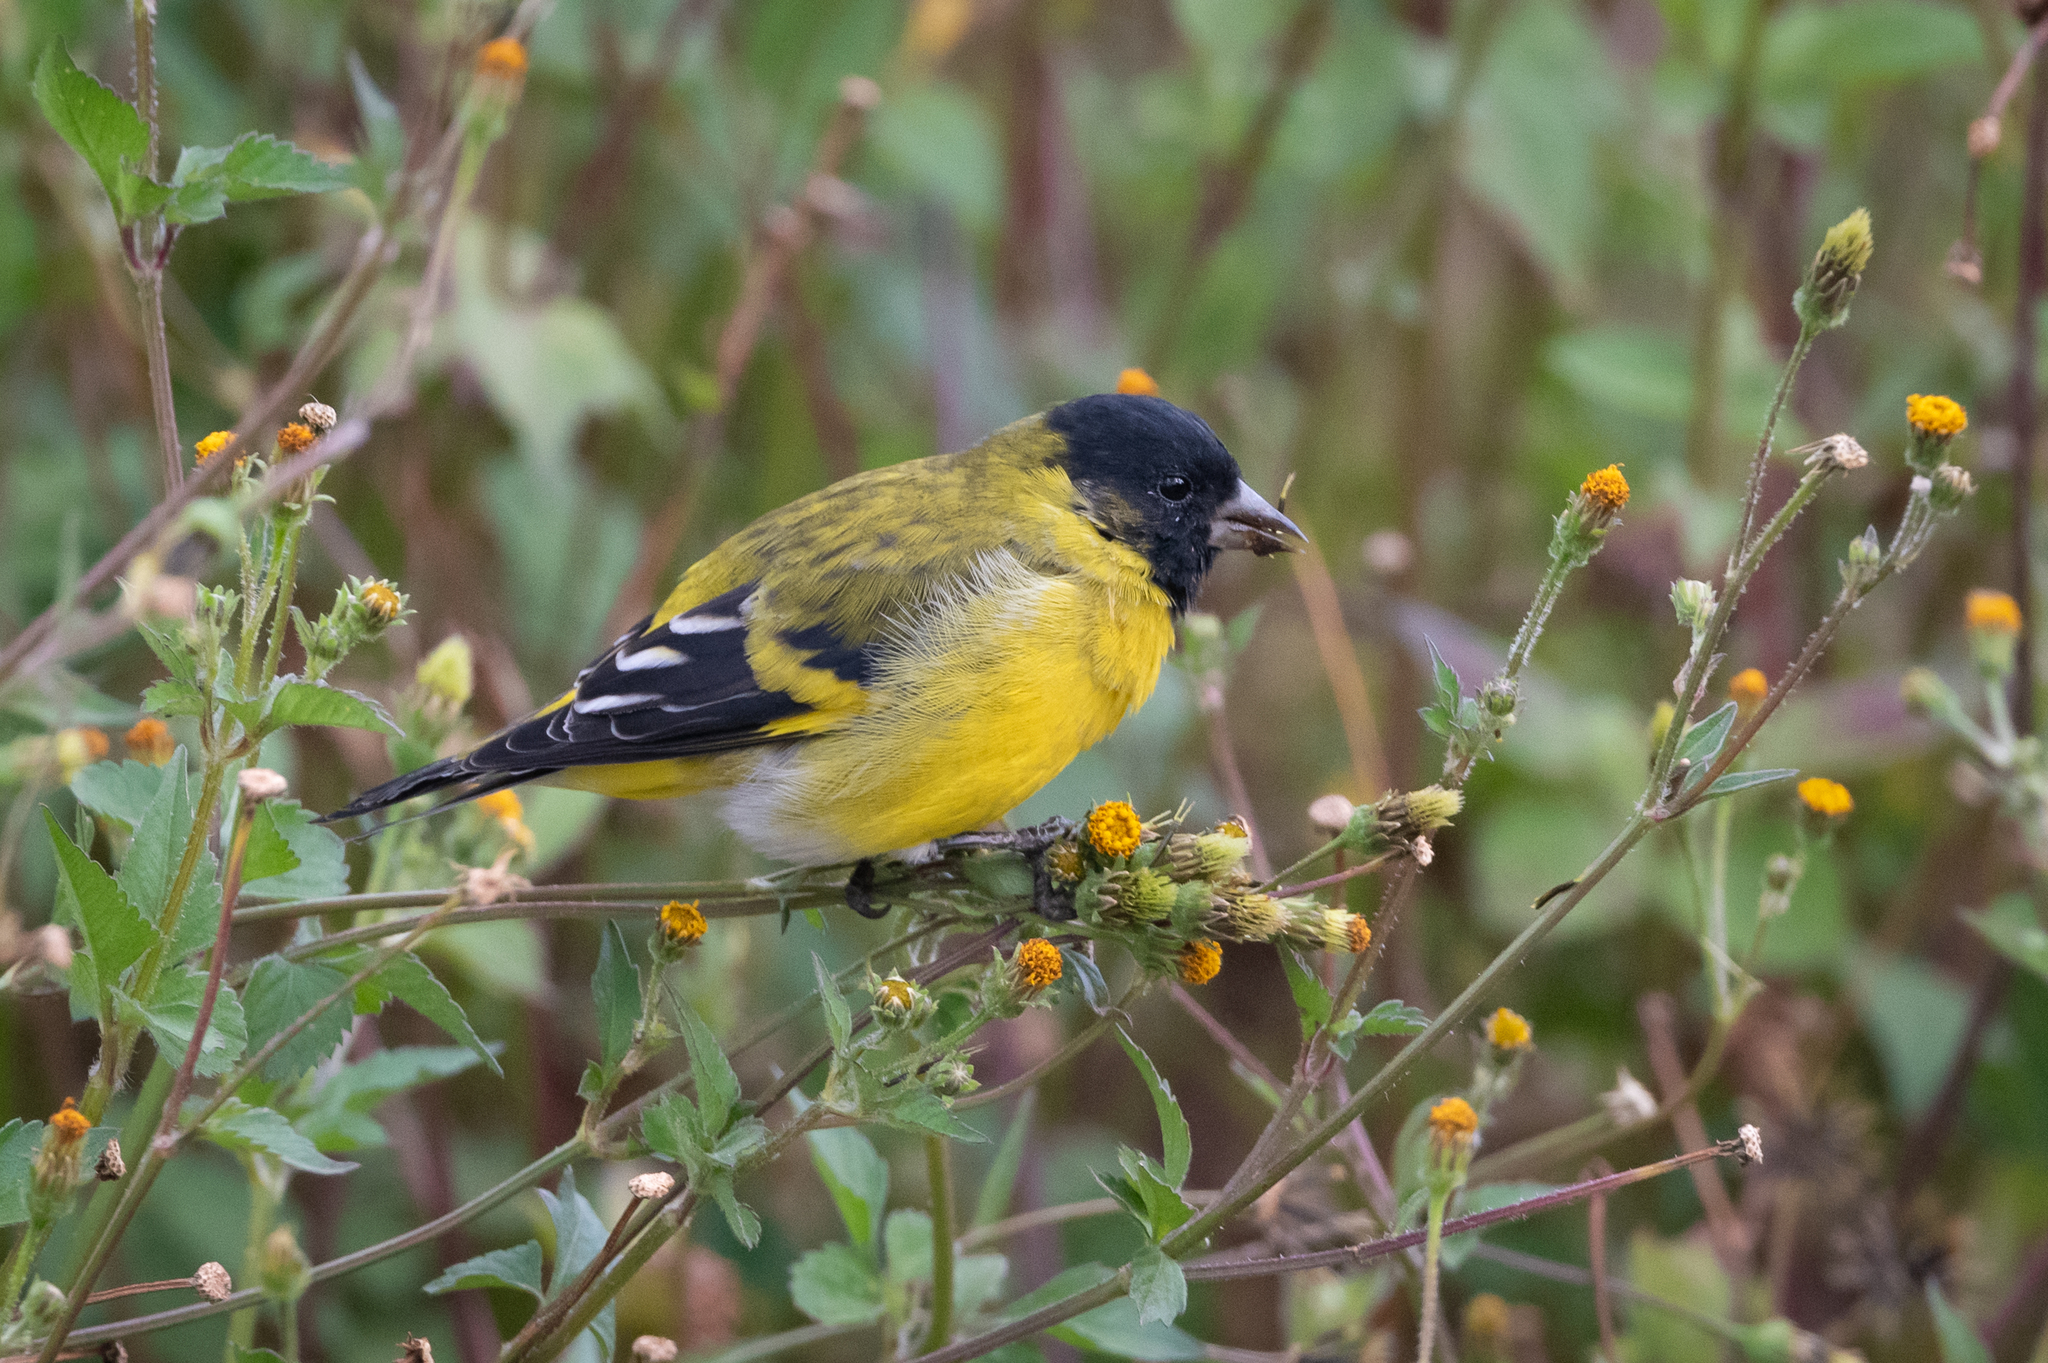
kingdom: Animalia
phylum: Chordata
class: Aves
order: Passeriformes
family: Fringillidae
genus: Spinus
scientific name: Spinus magellanicus
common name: Hooded siskin
